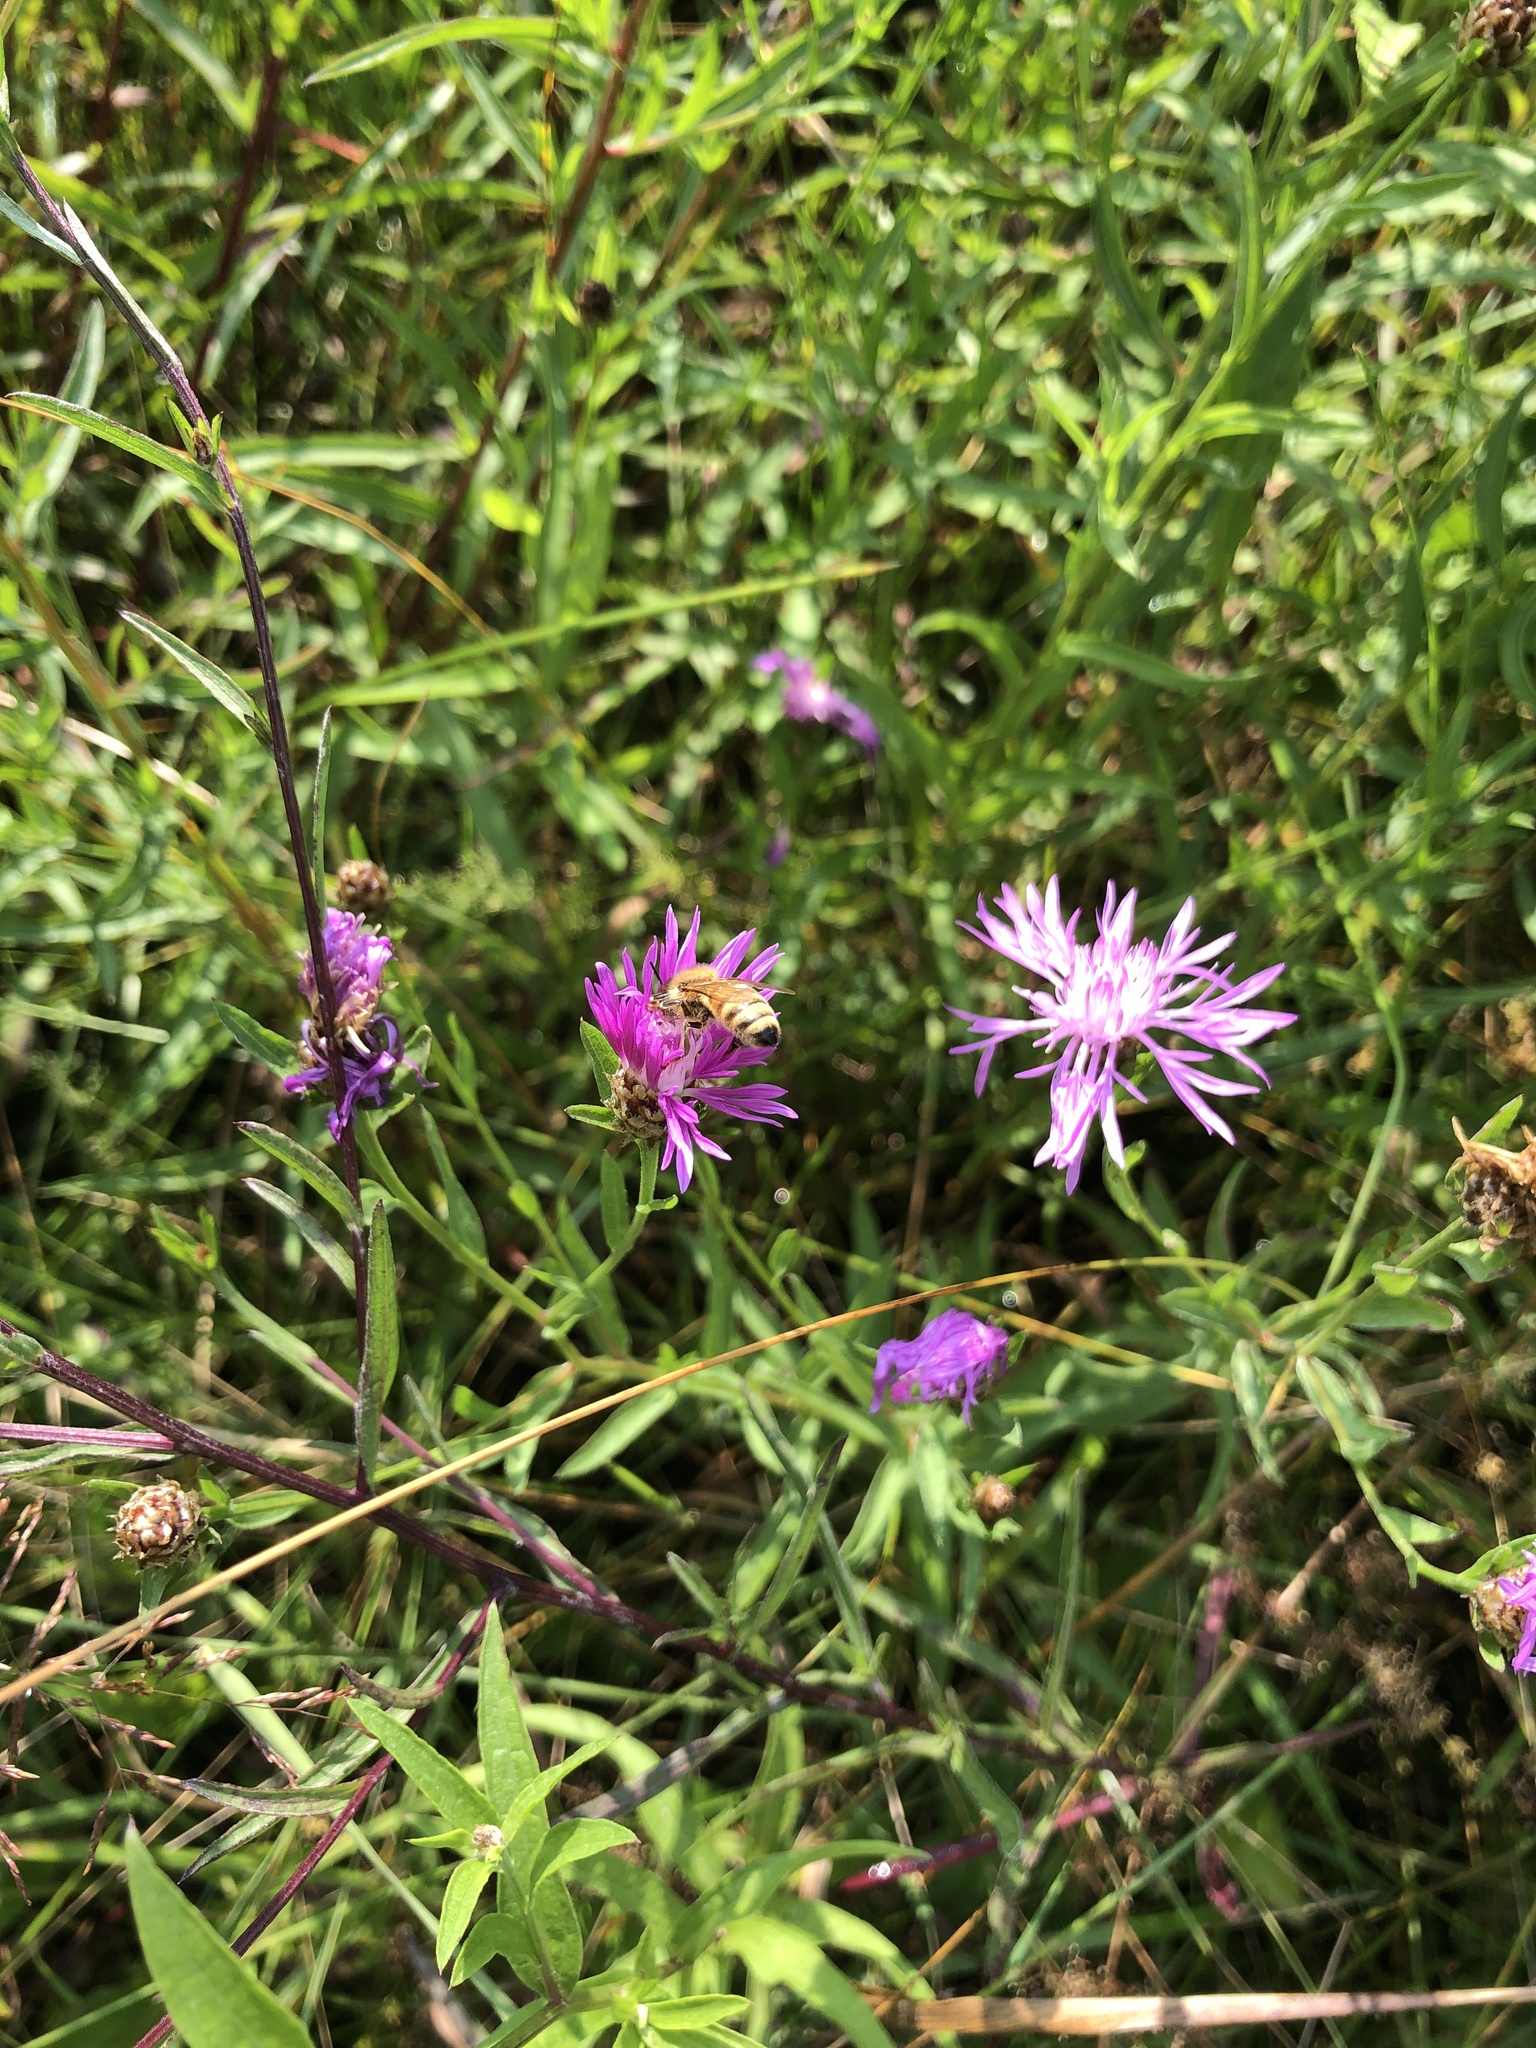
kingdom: Animalia
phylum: Arthropoda
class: Insecta
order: Hymenoptera
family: Apidae
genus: Apis
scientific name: Apis mellifera
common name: Honey bee
